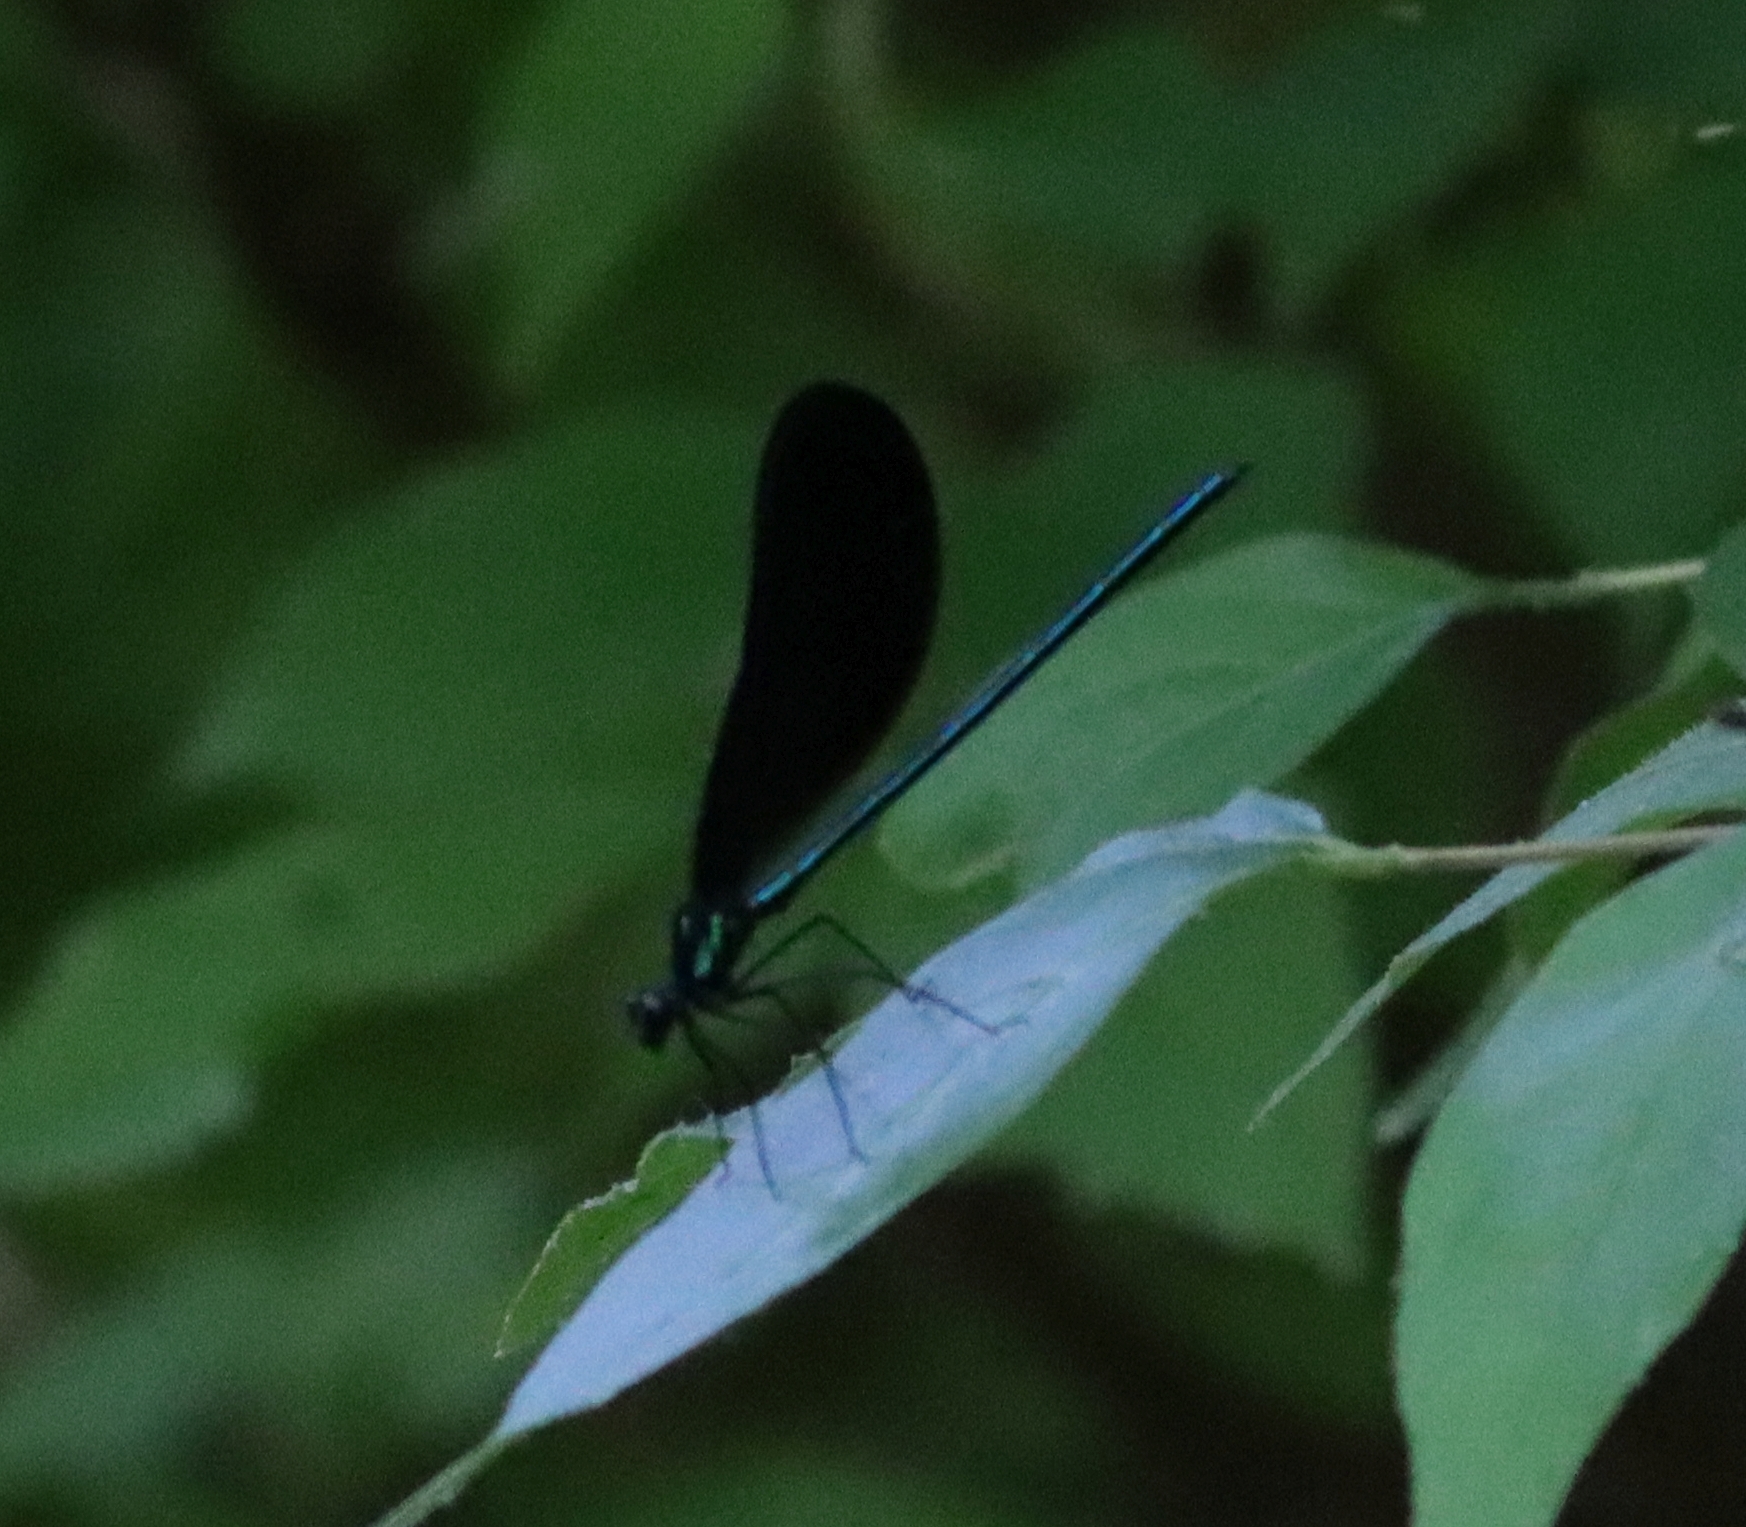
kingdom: Animalia
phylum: Arthropoda
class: Insecta
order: Odonata
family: Calopterygidae
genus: Calopteryx
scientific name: Calopteryx maculata
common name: Ebony jewelwing
